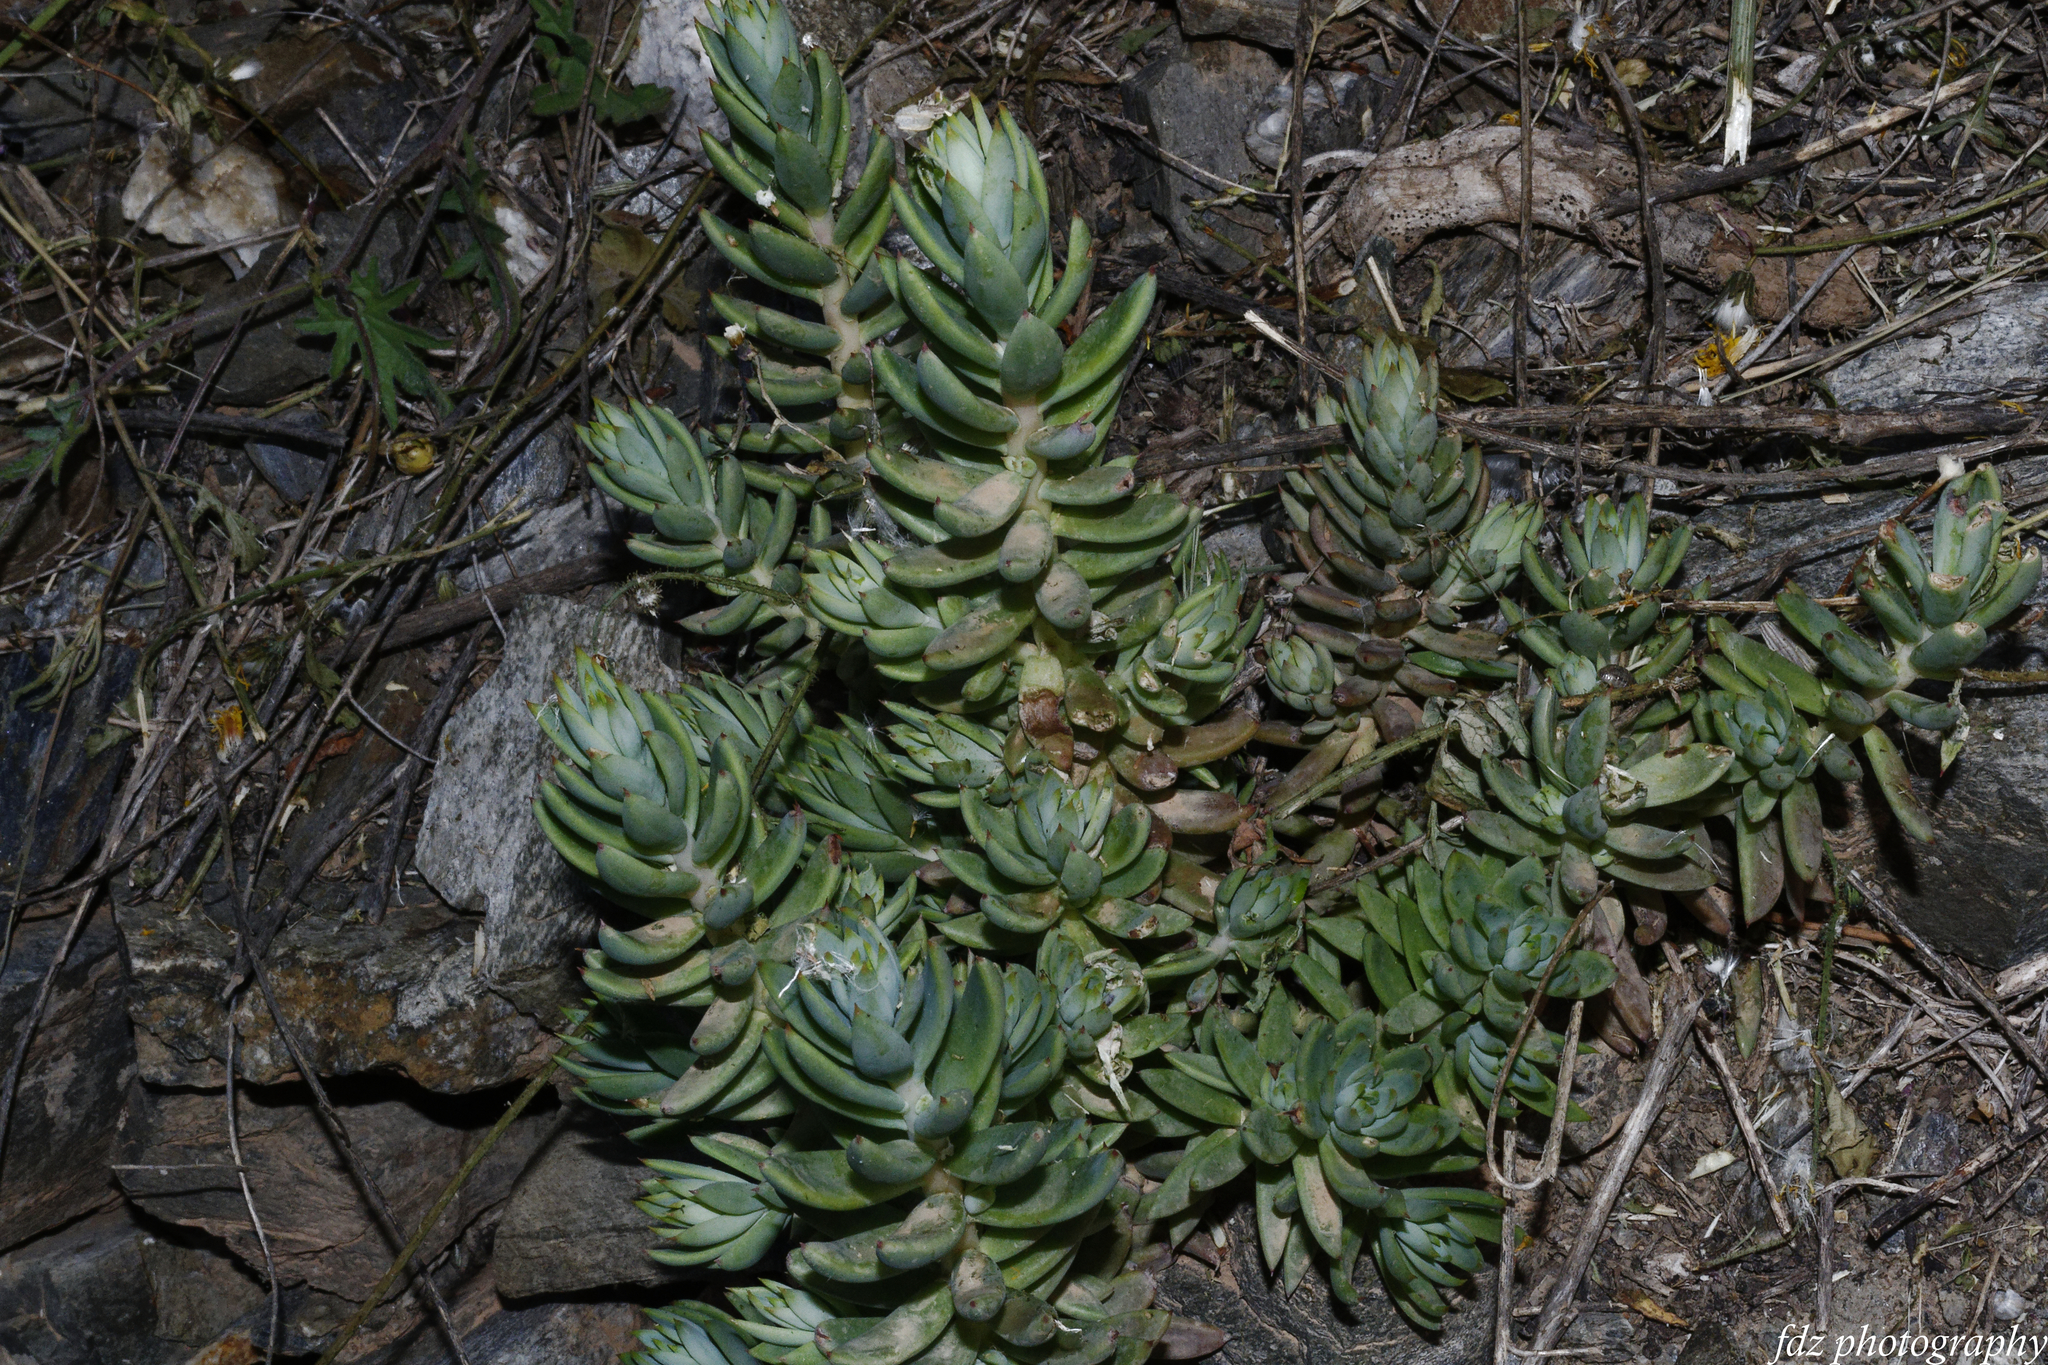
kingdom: Plantae
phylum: Tracheophyta
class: Magnoliopsida
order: Saxifragales
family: Crassulaceae
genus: Petrosedum
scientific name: Petrosedum sediforme
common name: Pale stonecrop
